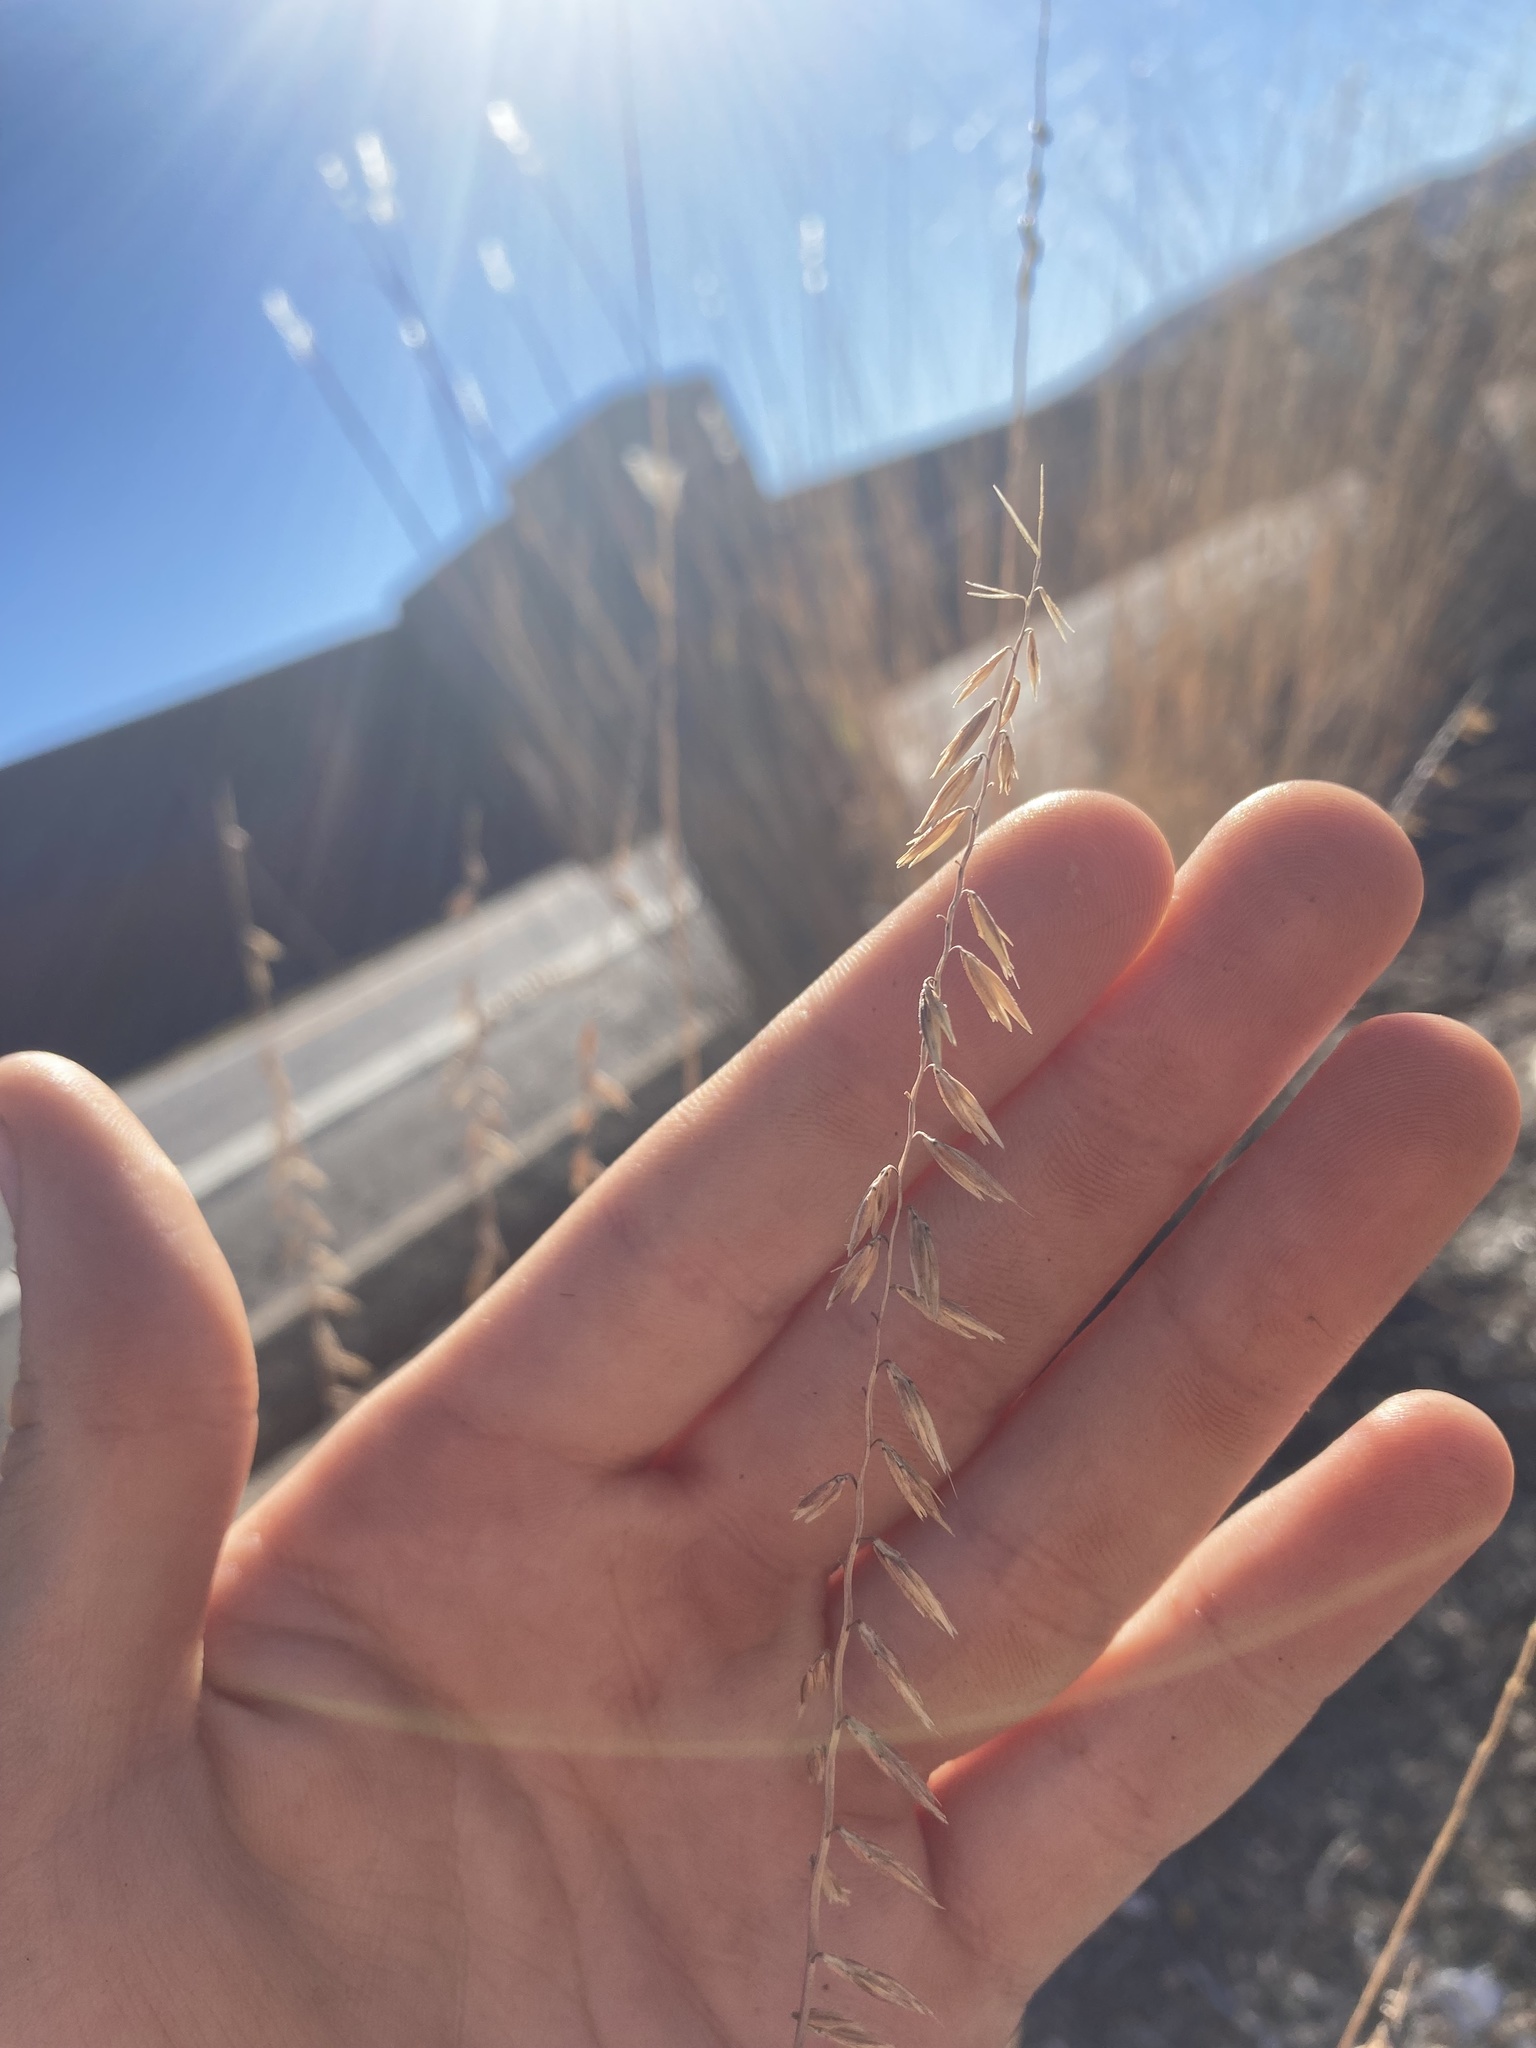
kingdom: Plantae
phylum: Tracheophyta
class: Liliopsida
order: Poales
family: Poaceae
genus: Bouteloua
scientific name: Bouteloua curtipendula
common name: Side-oats grama
